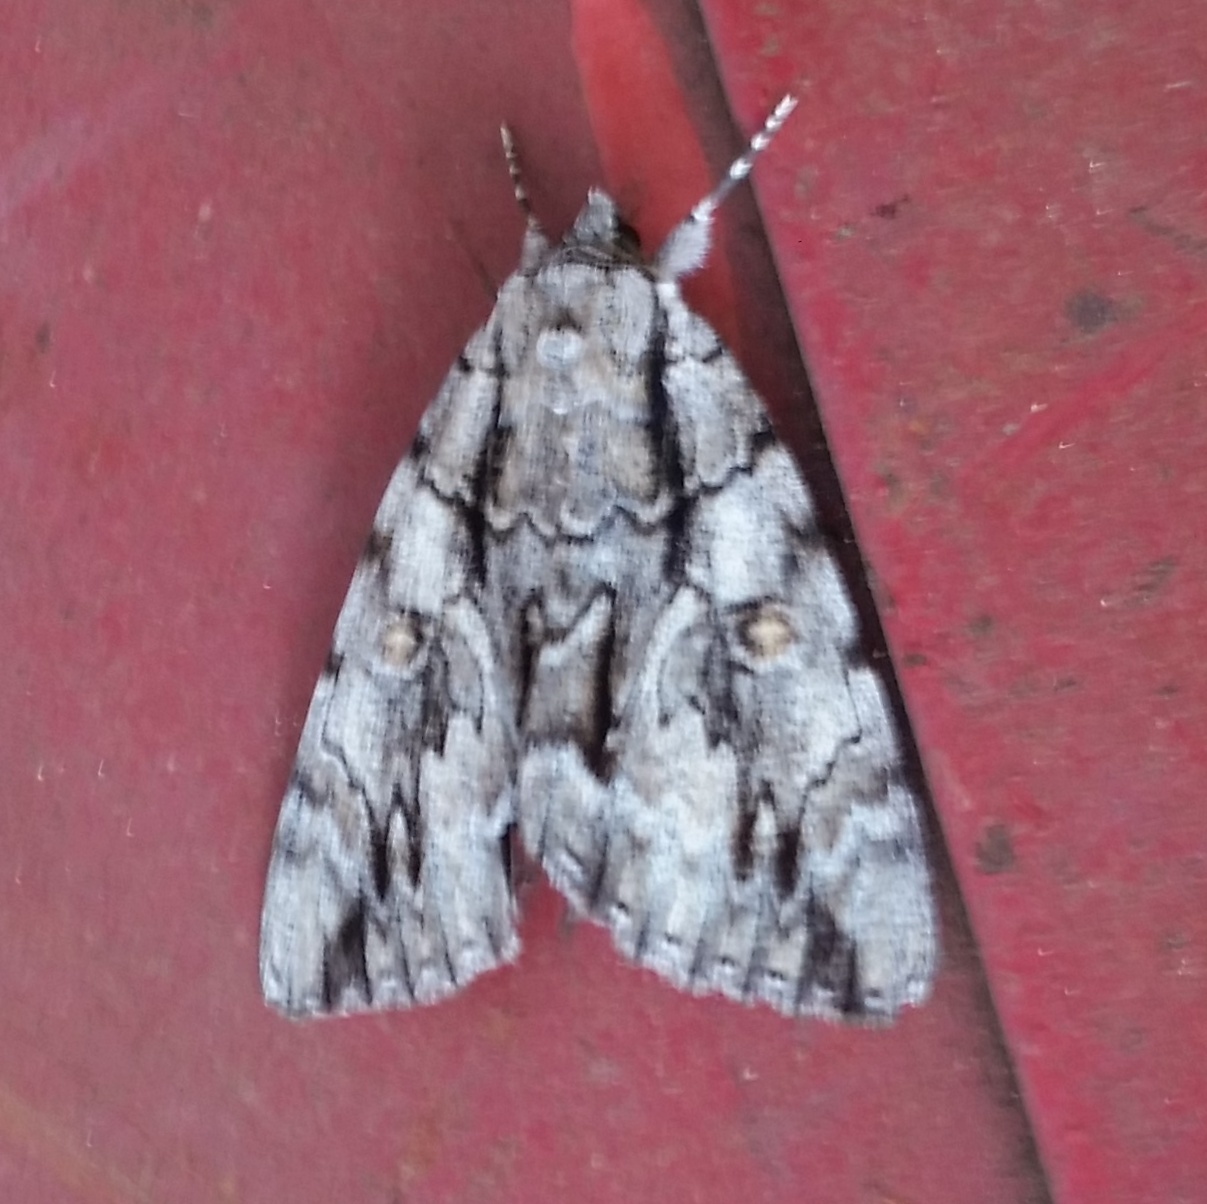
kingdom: Animalia
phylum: Arthropoda
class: Insecta
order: Lepidoptera
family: Erebidae
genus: Catocala
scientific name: Catocala retecta
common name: Yellow-gray underwing
